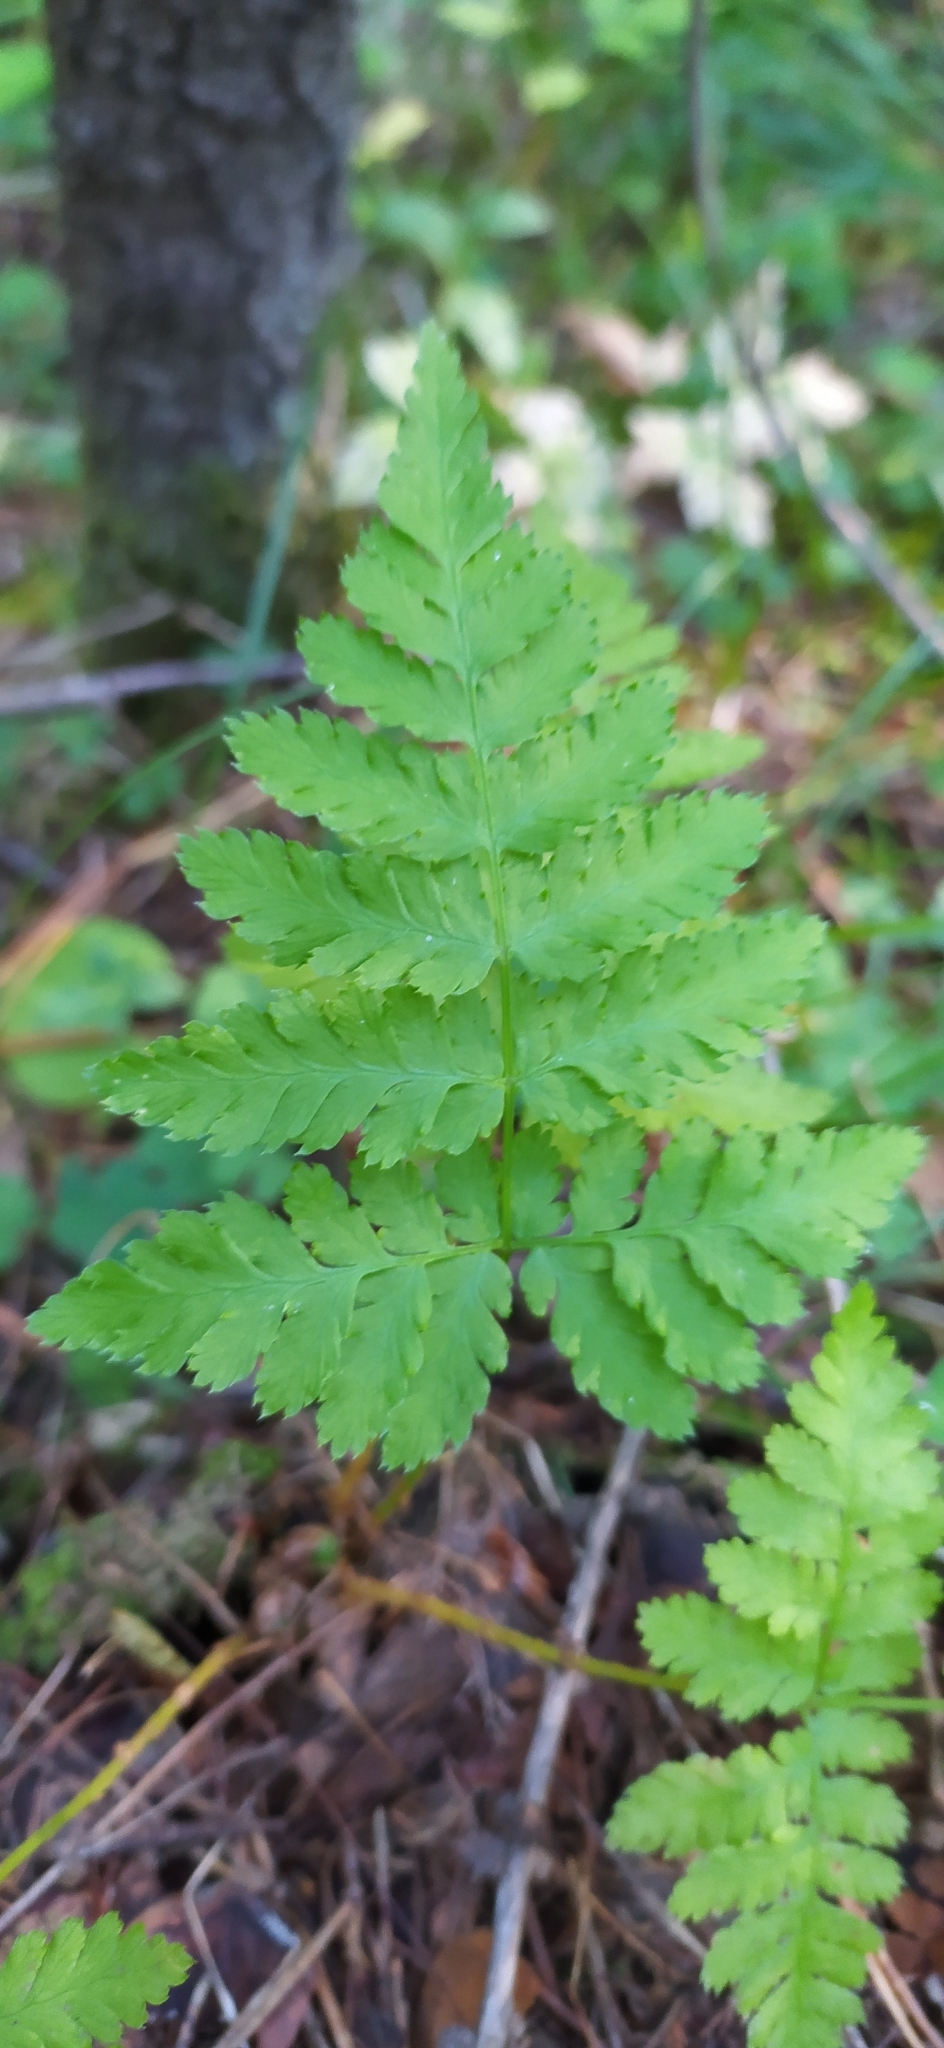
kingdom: Plantae
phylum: Tracheophyta
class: Polypodiopsida
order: Polypodiales
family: Dryopteridaceae
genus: Dryopteris
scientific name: Dryopteris carthusiana
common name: Narrow buckler-fern
